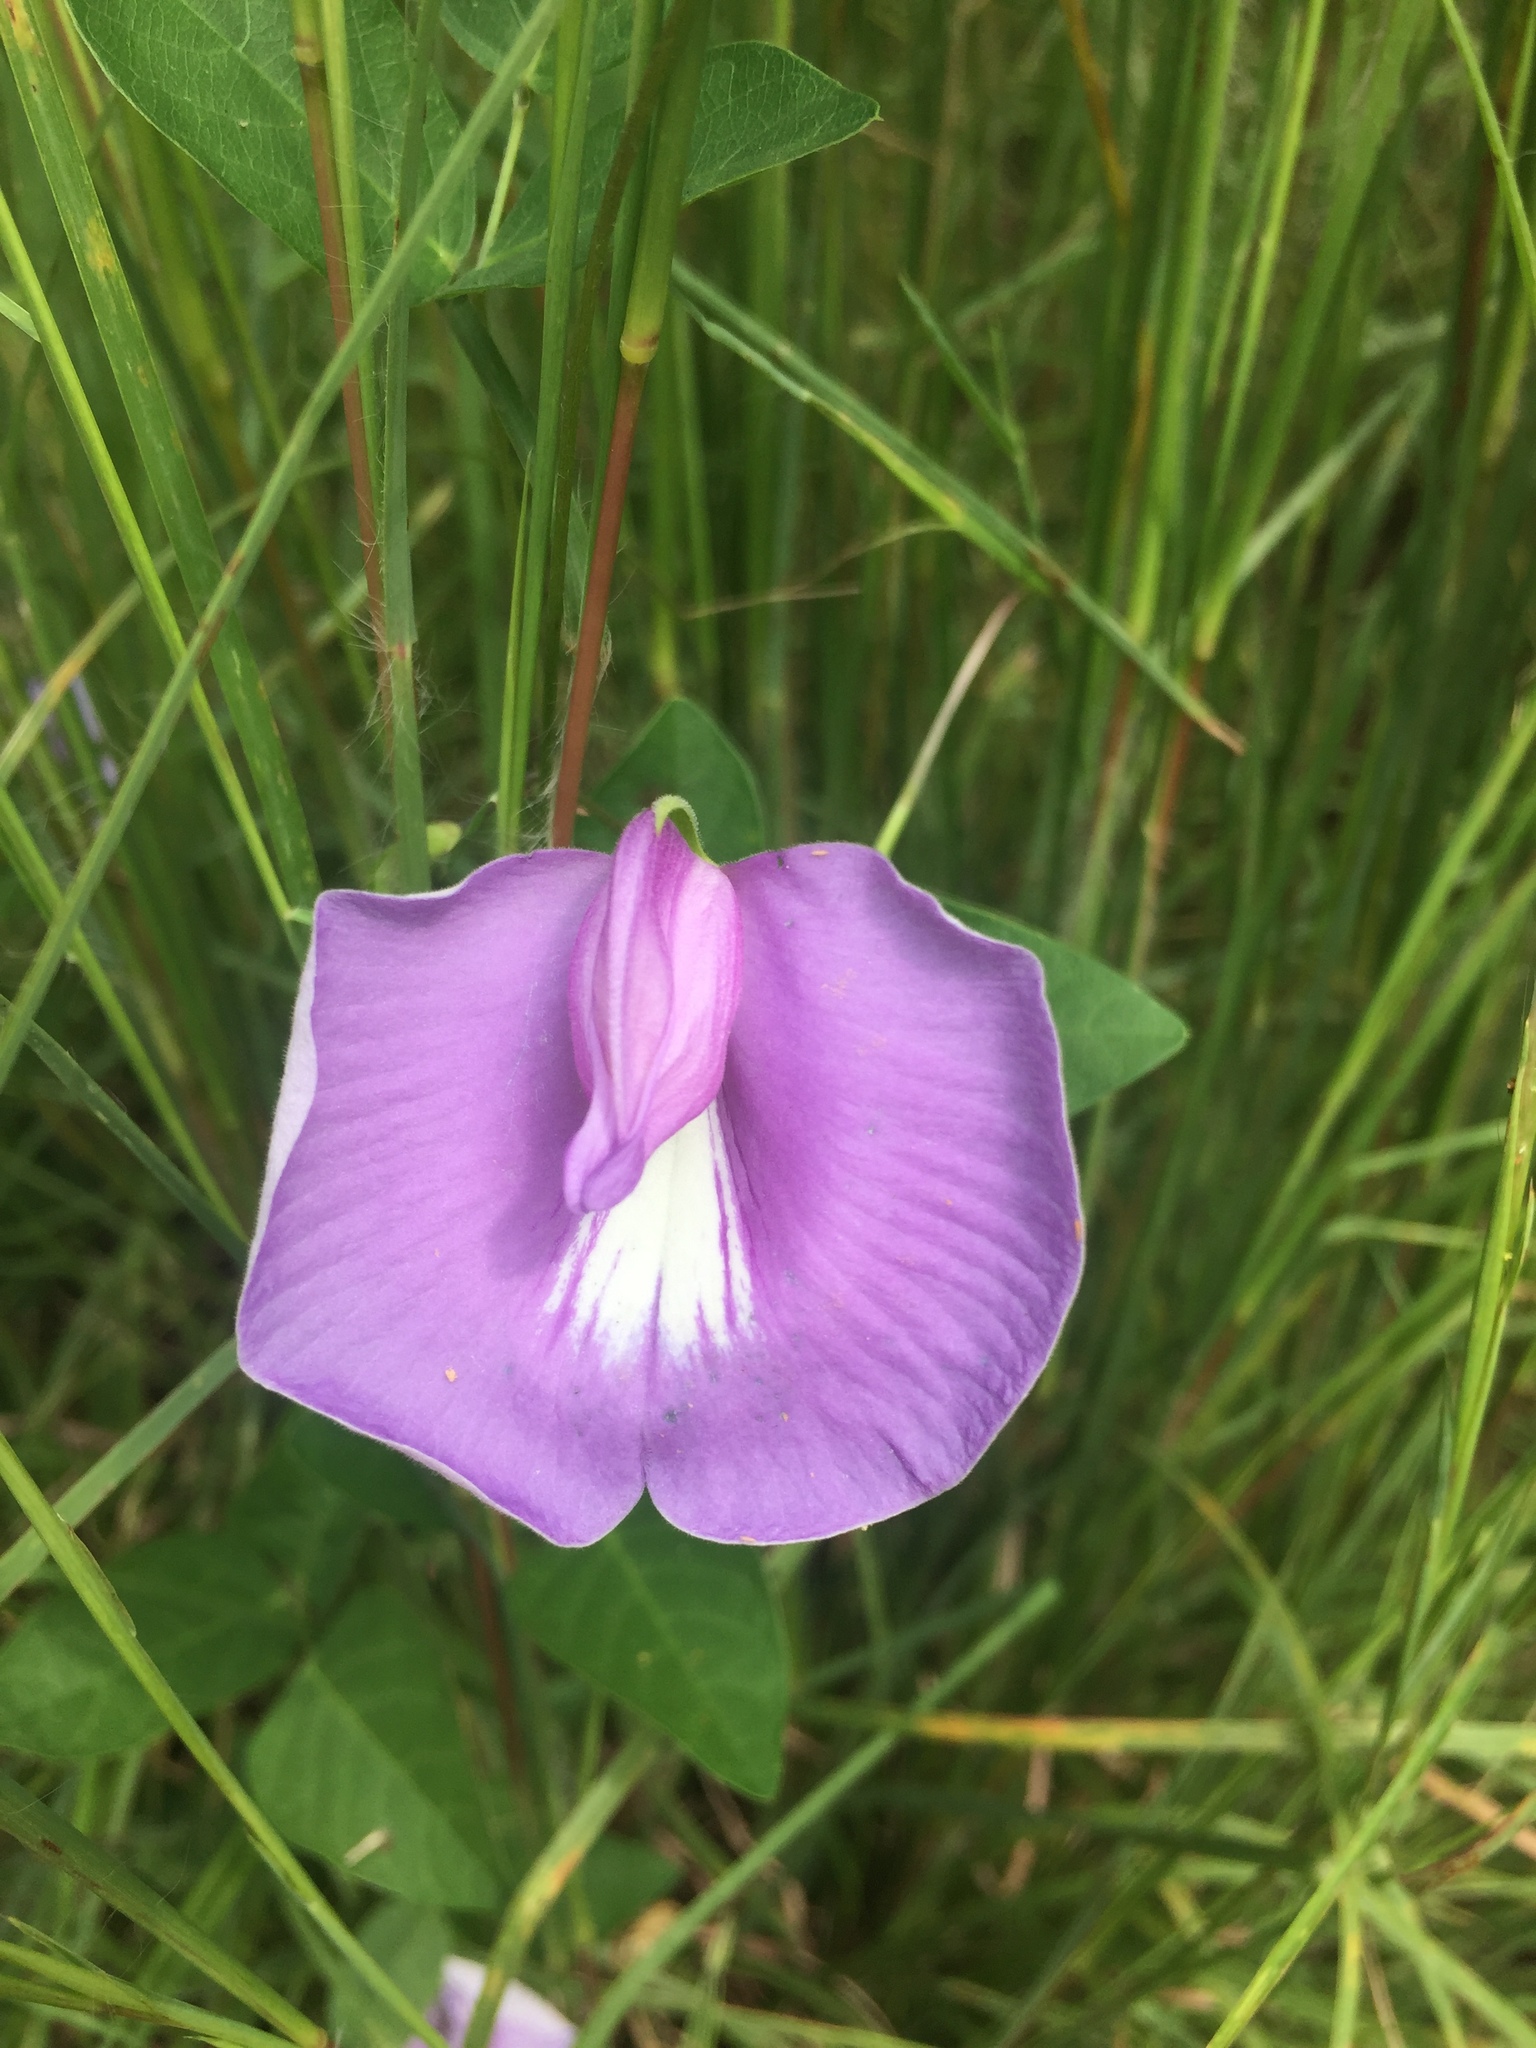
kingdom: Plantae
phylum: Tracheophyta
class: Magnoliopsida
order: Fabales
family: Fabaceae
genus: Centrosema
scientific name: Centrosema virginianum
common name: Butterfly-pea
